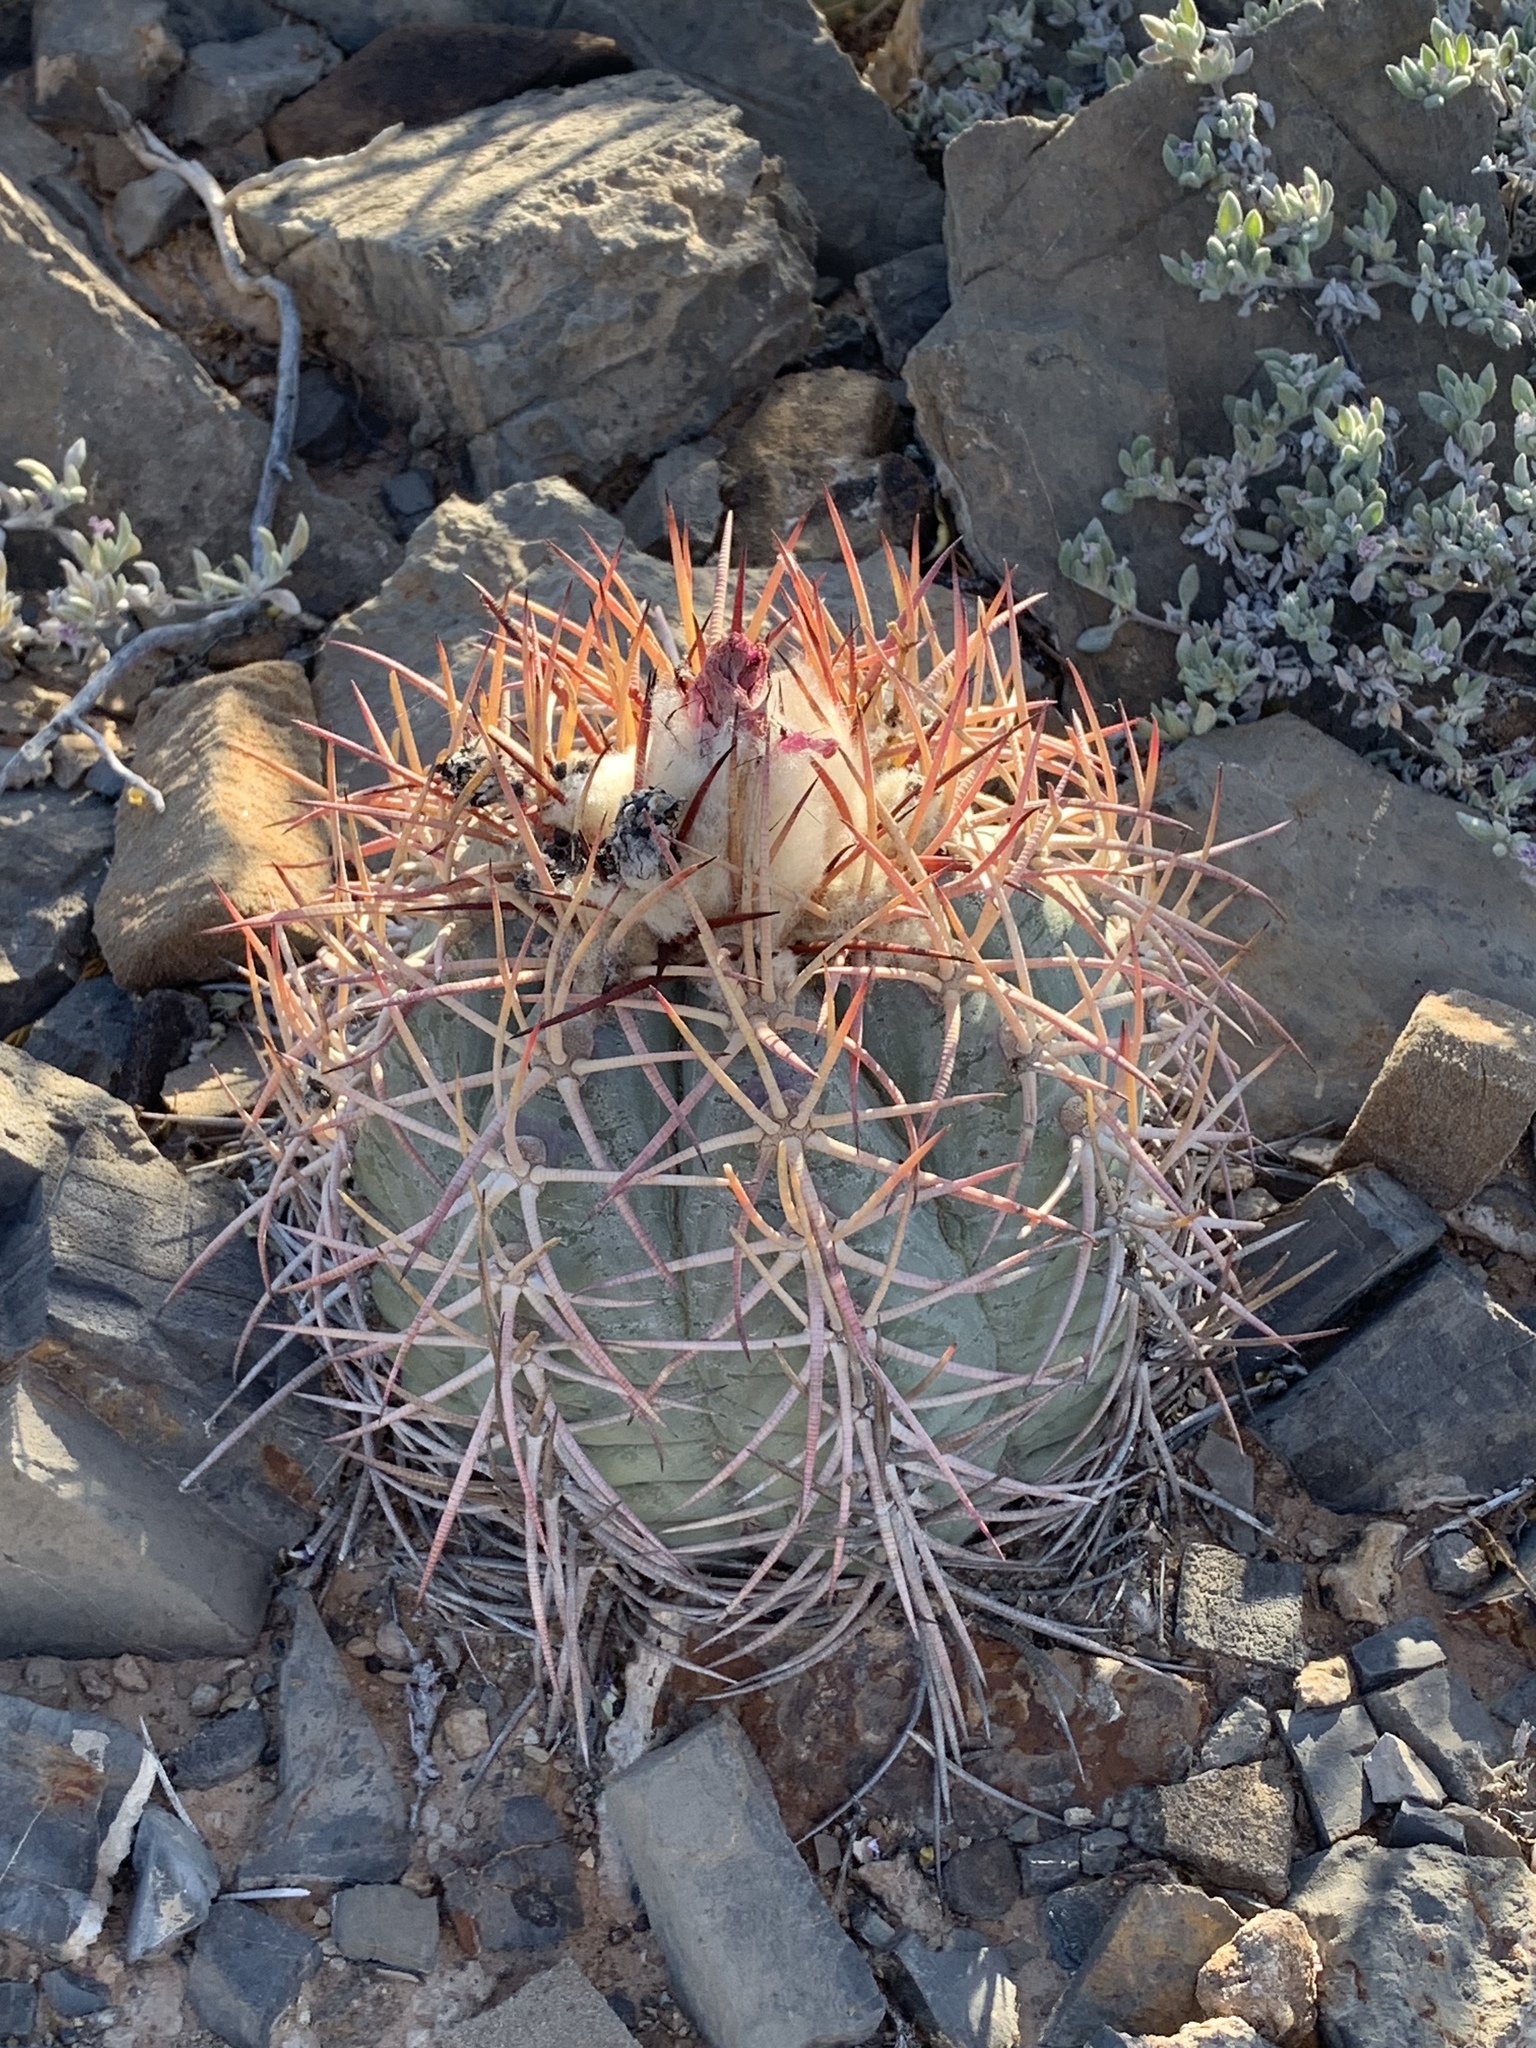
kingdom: Plantae
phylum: Tracheophyta
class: Magnoliopsida
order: Caryophyllales
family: Cactaceae
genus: Echinocactus
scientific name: Echinocactus horizonthalonius
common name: Devilshead
